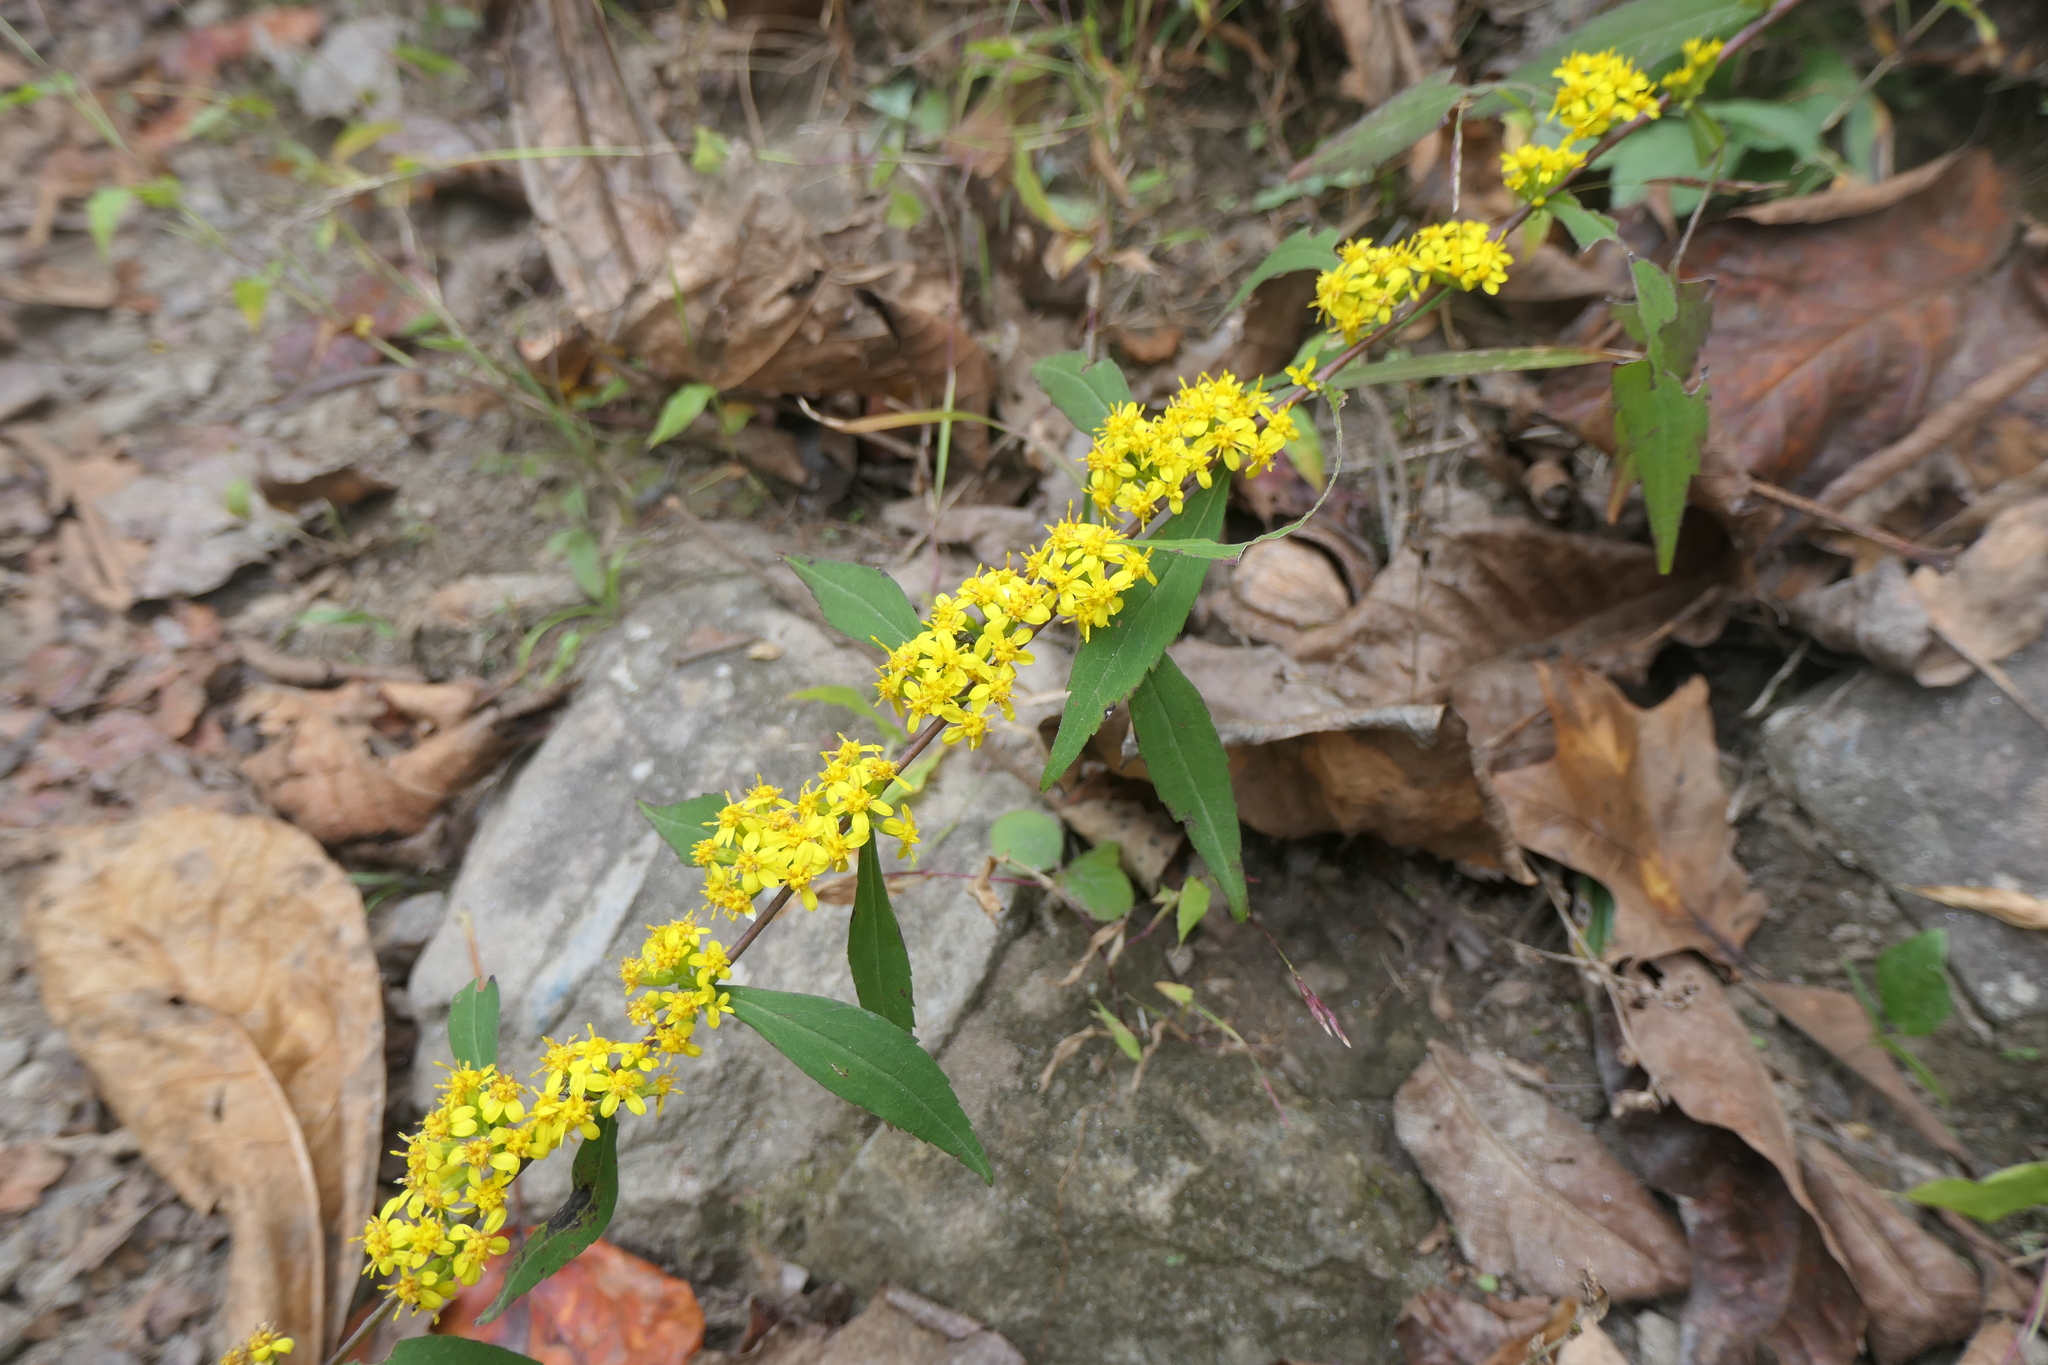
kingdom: Plantae
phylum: Tracheophyta
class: Magnoliopsida
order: Asterales
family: Asteraceae
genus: Solidago
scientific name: Solidago caesia
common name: Woodland goldenrod
